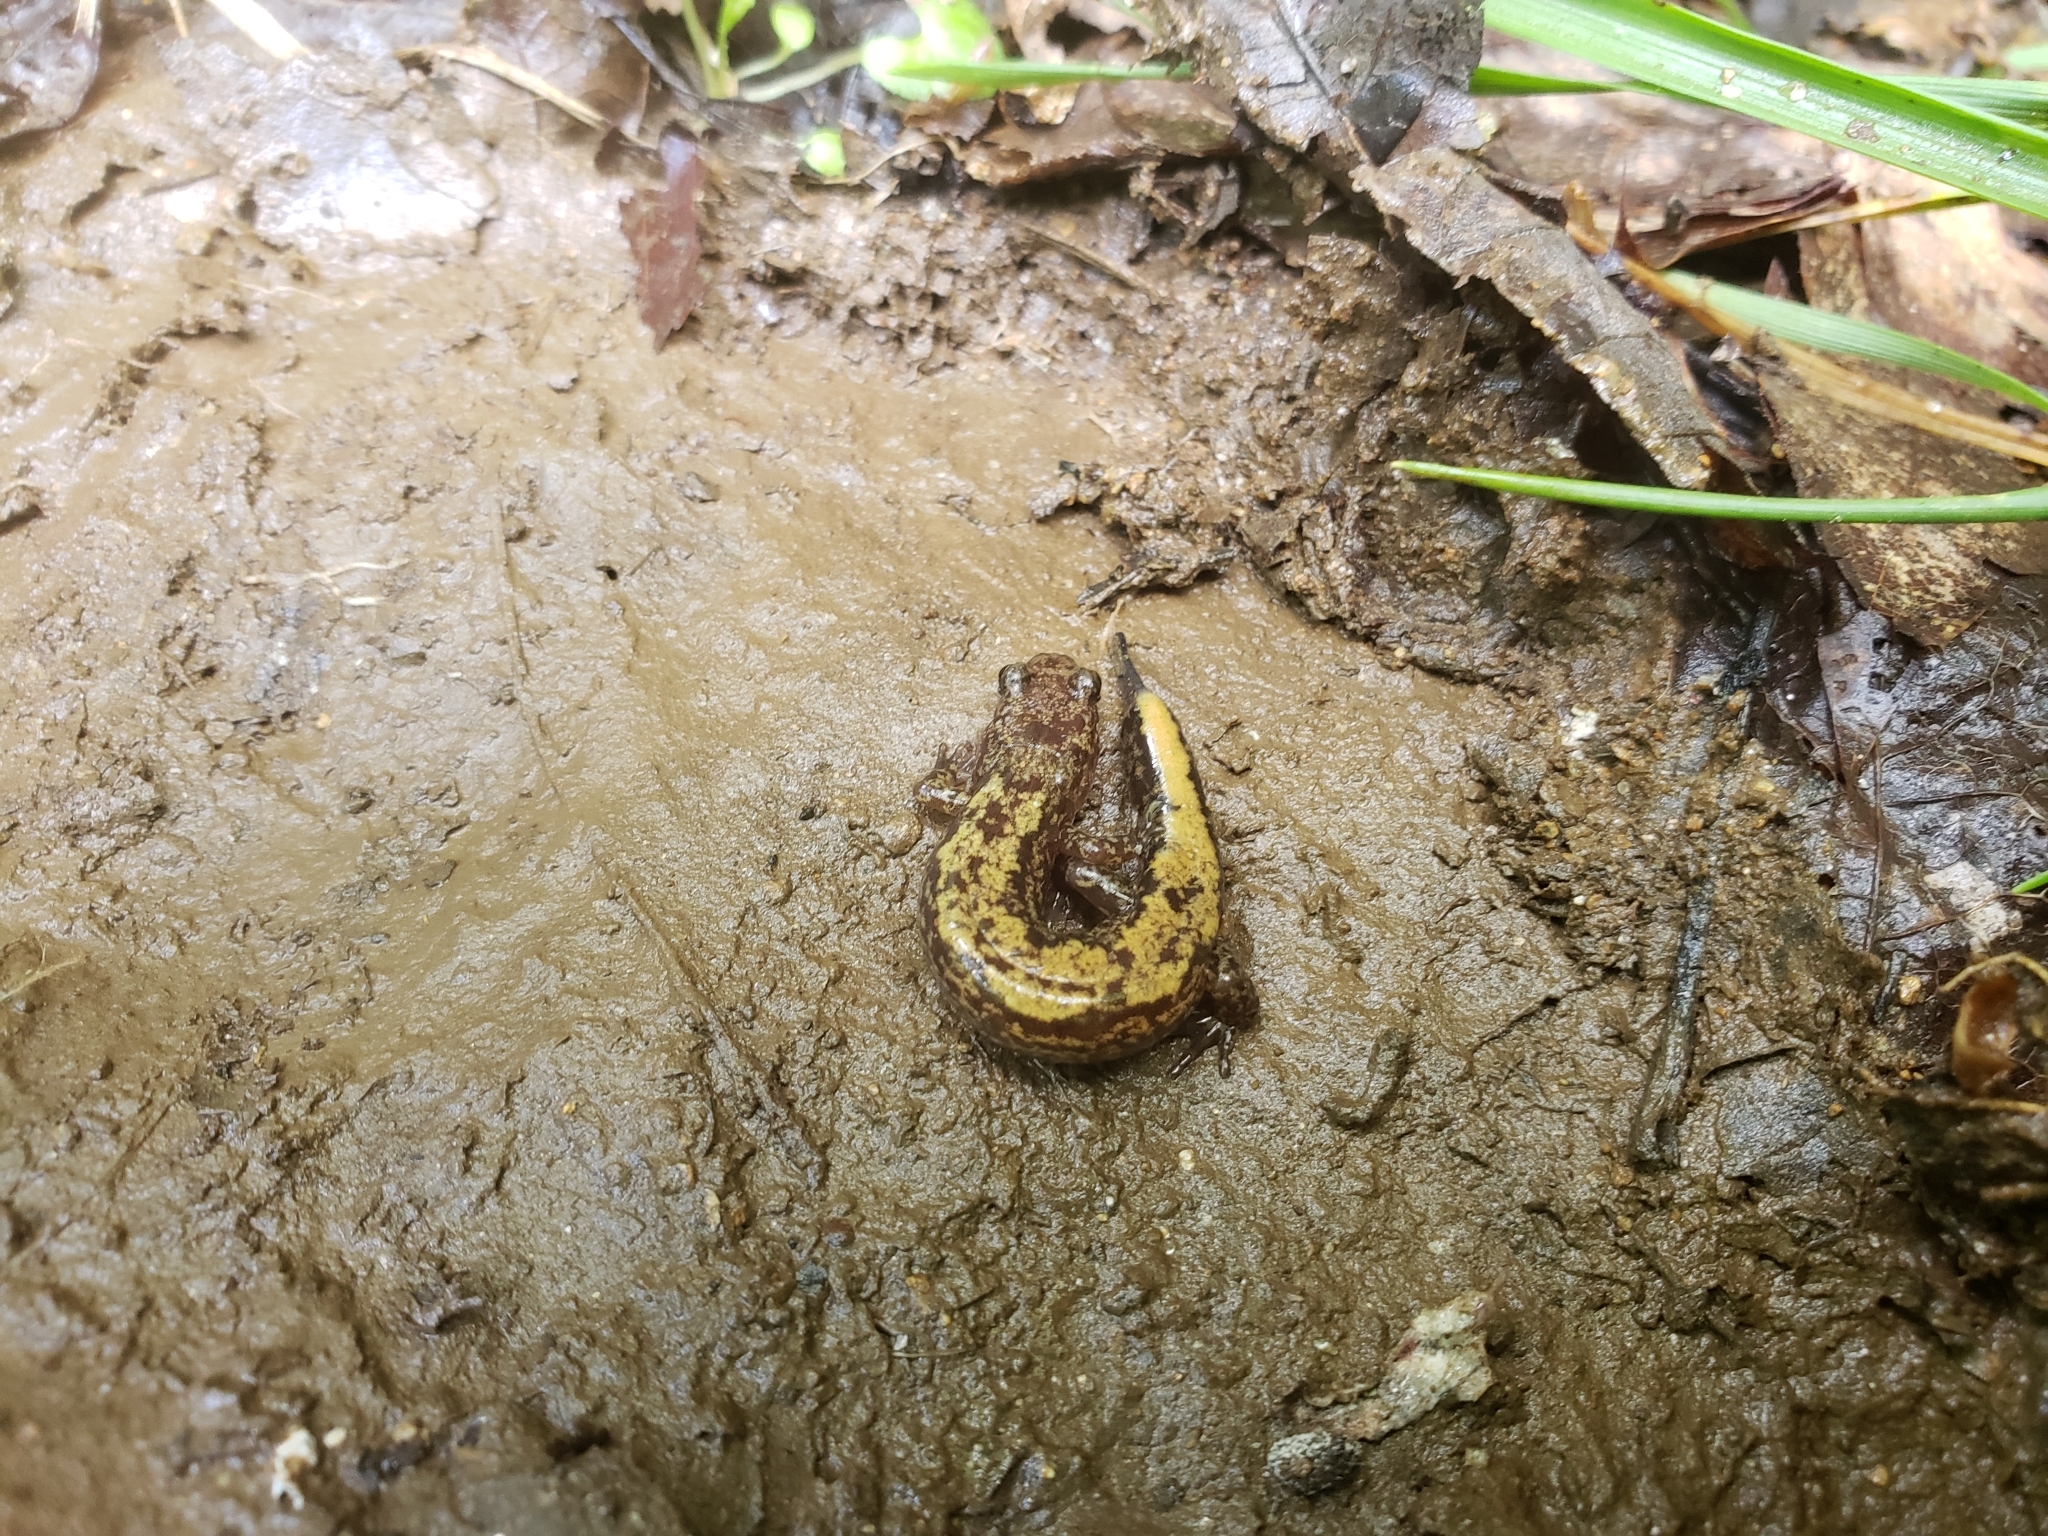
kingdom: Animalia
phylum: Chordata
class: Amphibia
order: Caudata
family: Plethodontidae
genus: Desmognathus
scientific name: Desmognathus adatsihi
